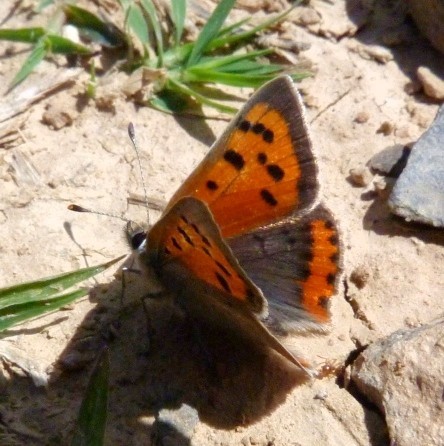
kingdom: Animalia
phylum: Arthropoda
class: Insecta
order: Lepidoptera
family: Lycaenidae
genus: Lycaena
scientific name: Lycaena phlaeas
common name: Small copper
